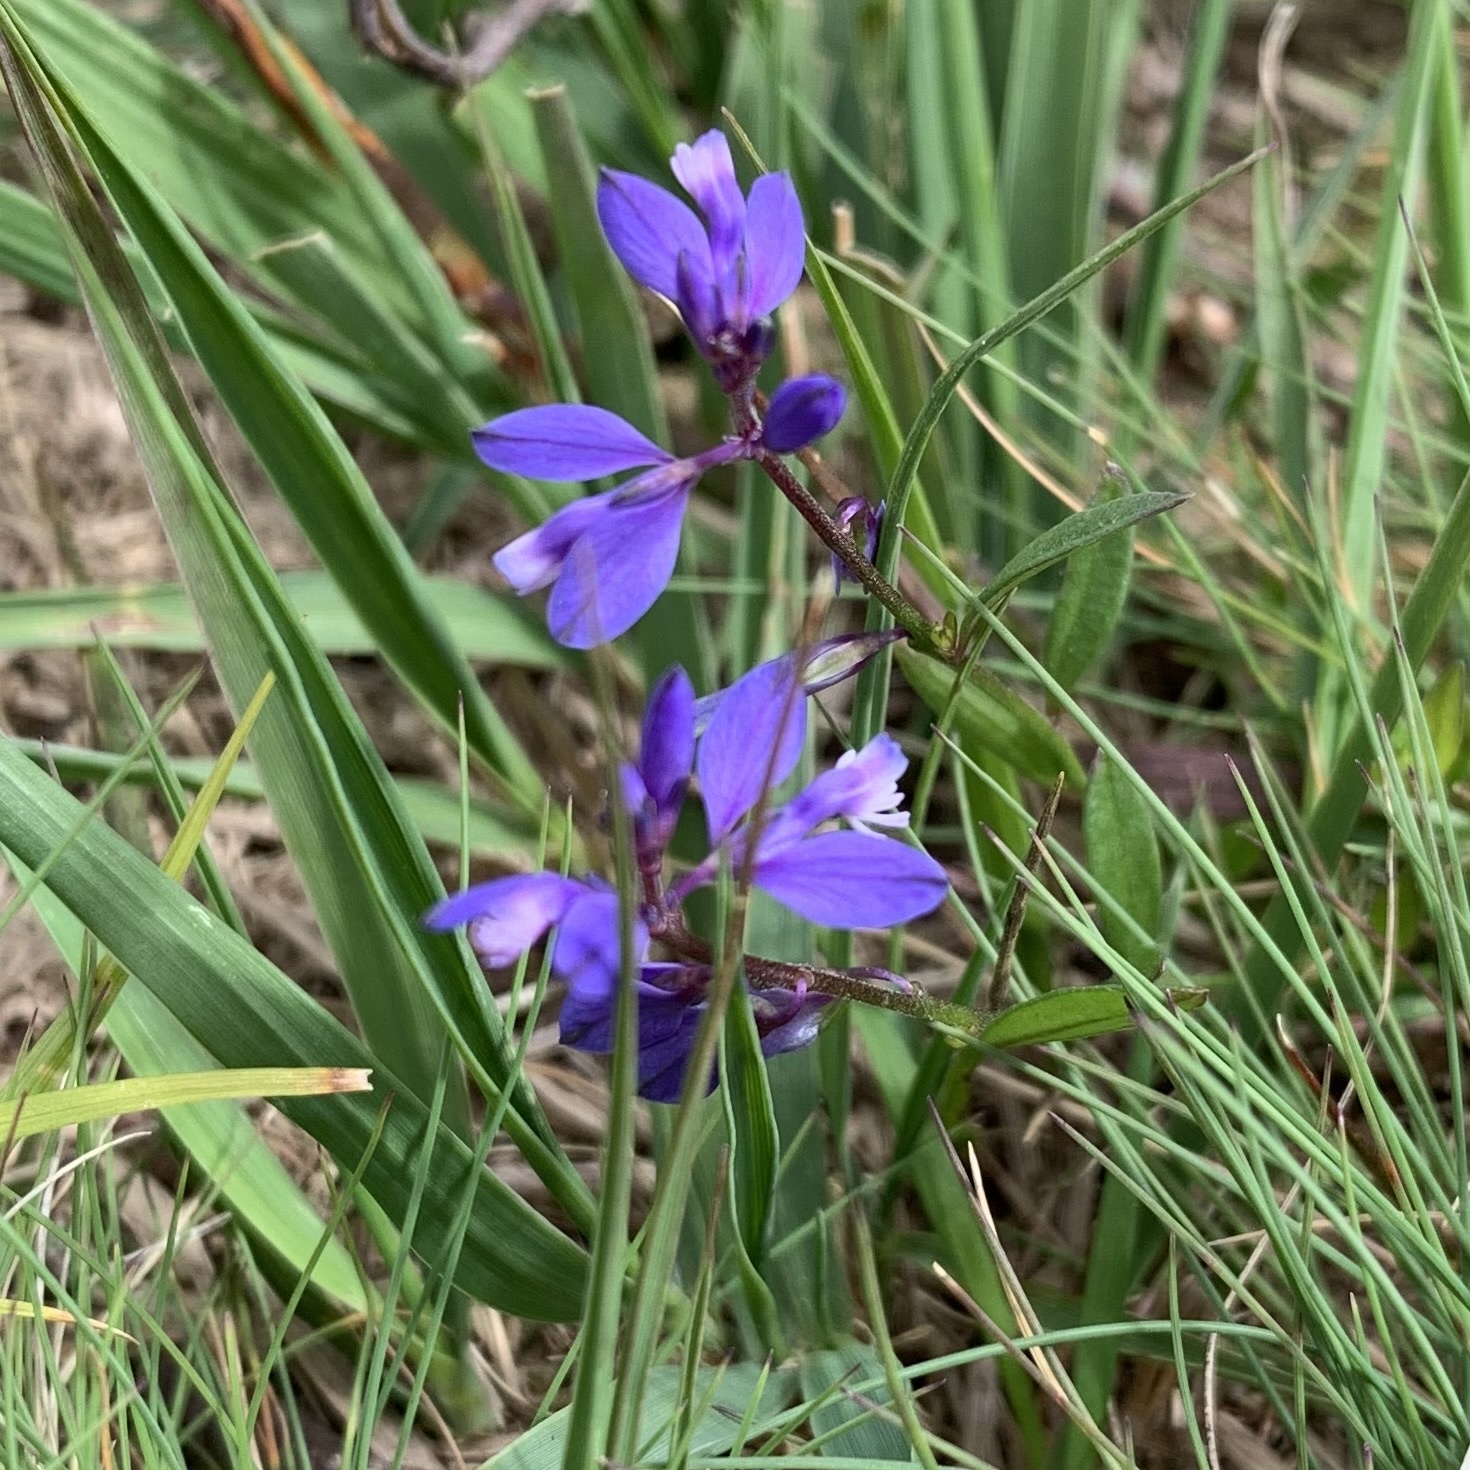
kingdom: Plantae
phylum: Tracheophyta
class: Magnoliopsida
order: Fabales
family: Polygalaceae
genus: Polygala
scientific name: Polygala vulgaris
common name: Common milkwort
